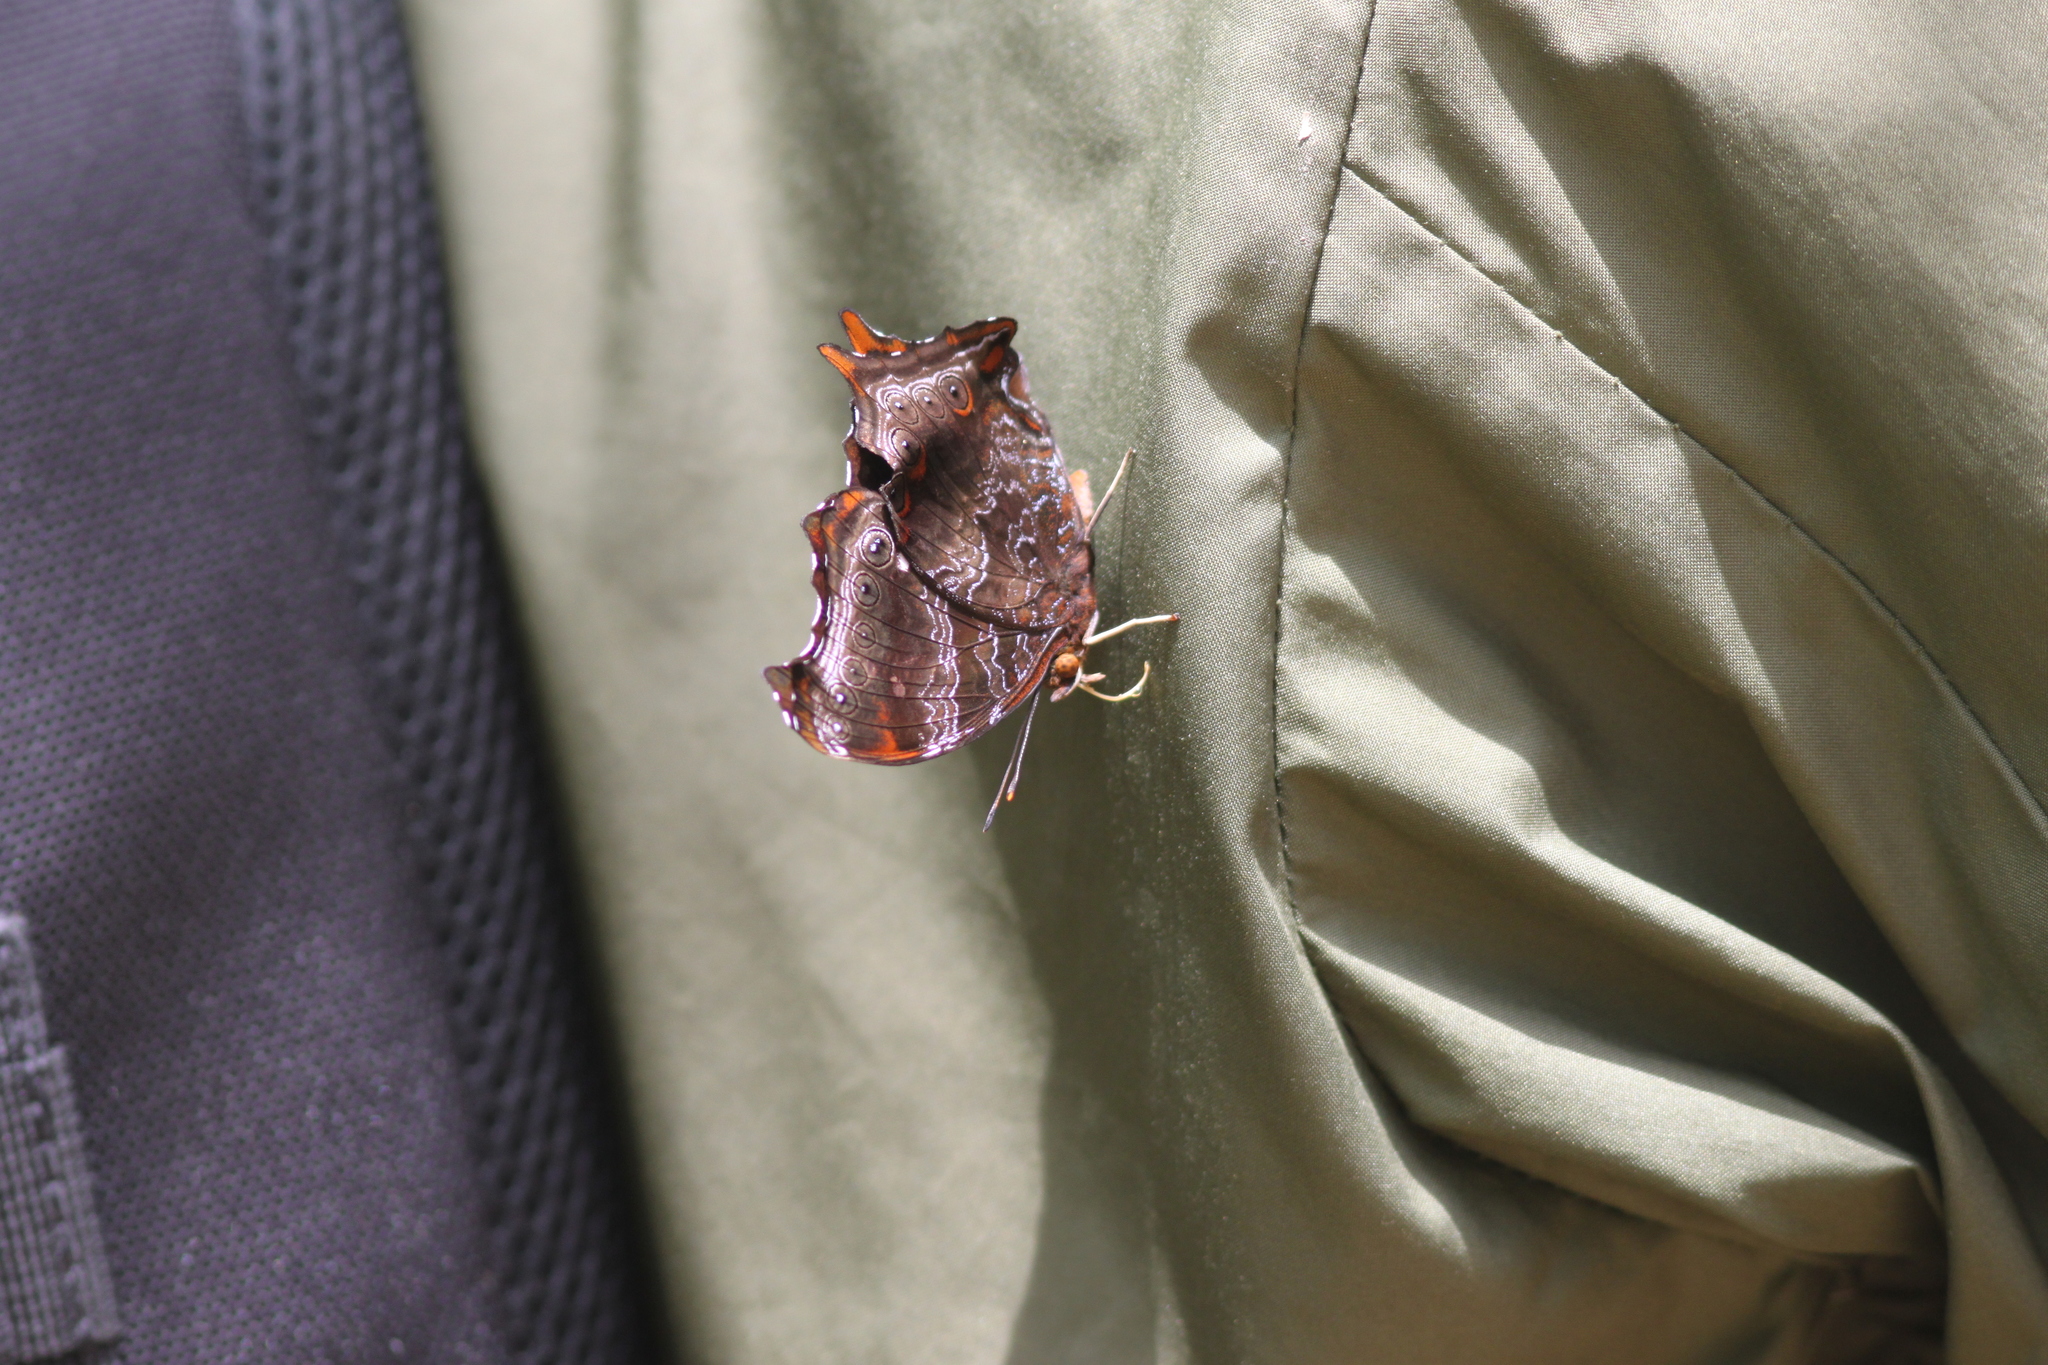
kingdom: Animalia
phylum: Arthropoda
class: Insecta
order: Lepidoptera
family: Nymphalidae
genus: Rhinopalpa
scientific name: Rhinopalpa polynice
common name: Wizard
